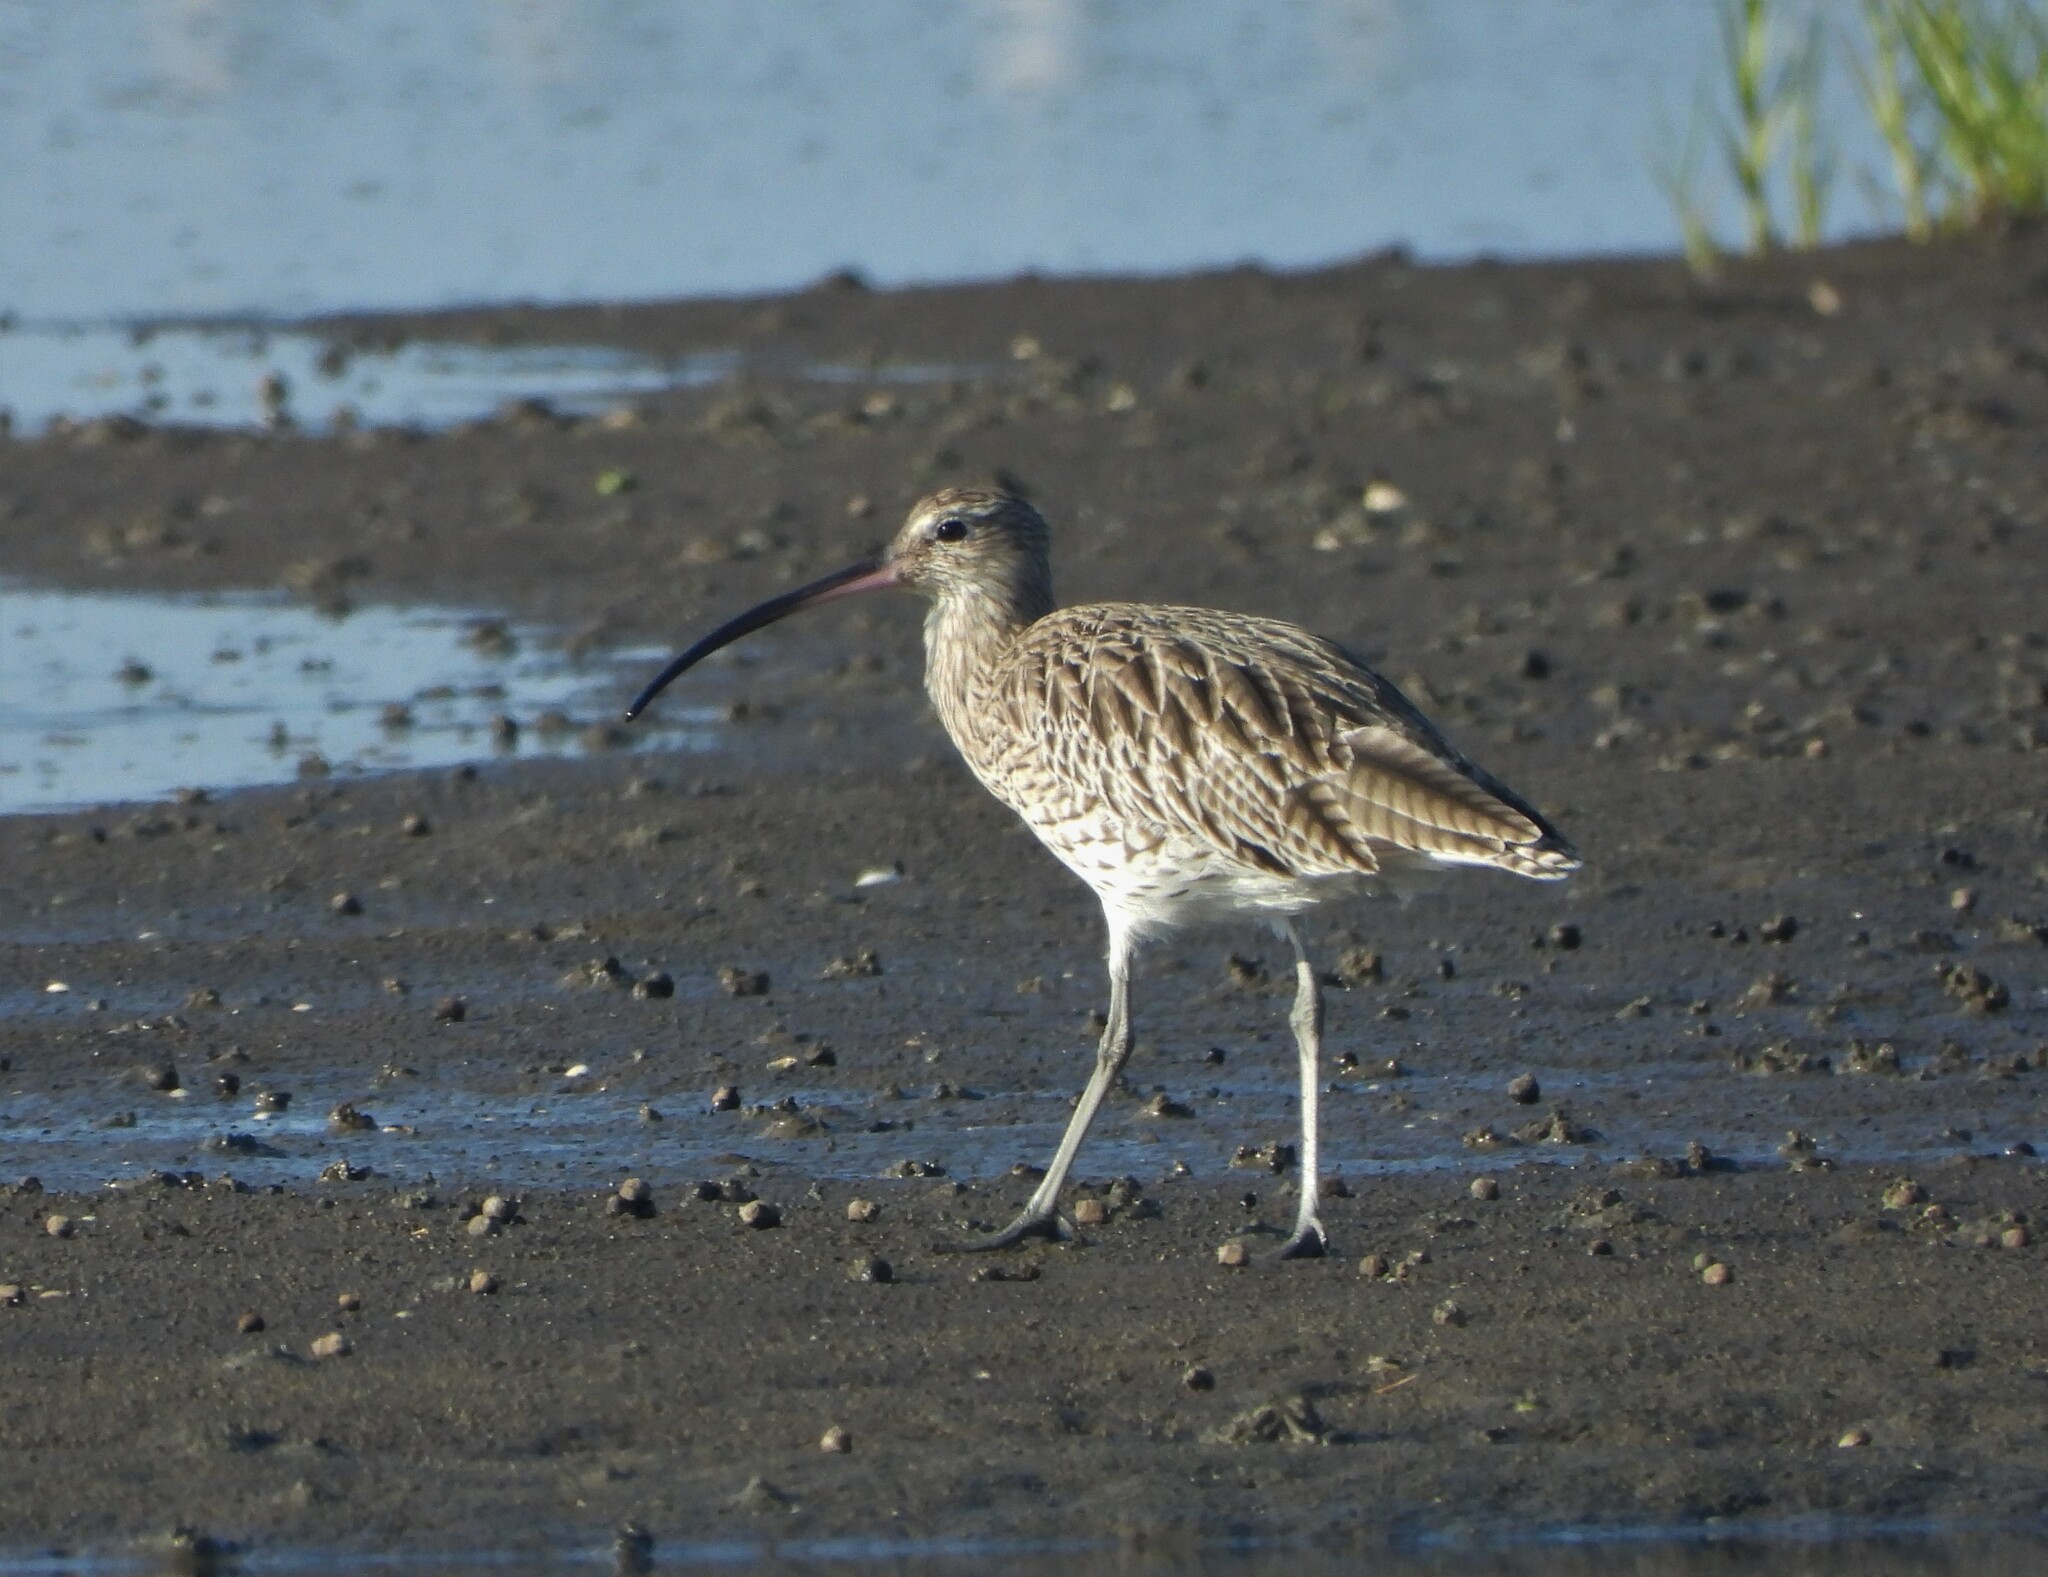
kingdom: Animalia
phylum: Chordata
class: Aves
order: Charadriiformes
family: Scolopacidae
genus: Numenius
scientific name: Numenius arquata
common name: Eurasian curlew
